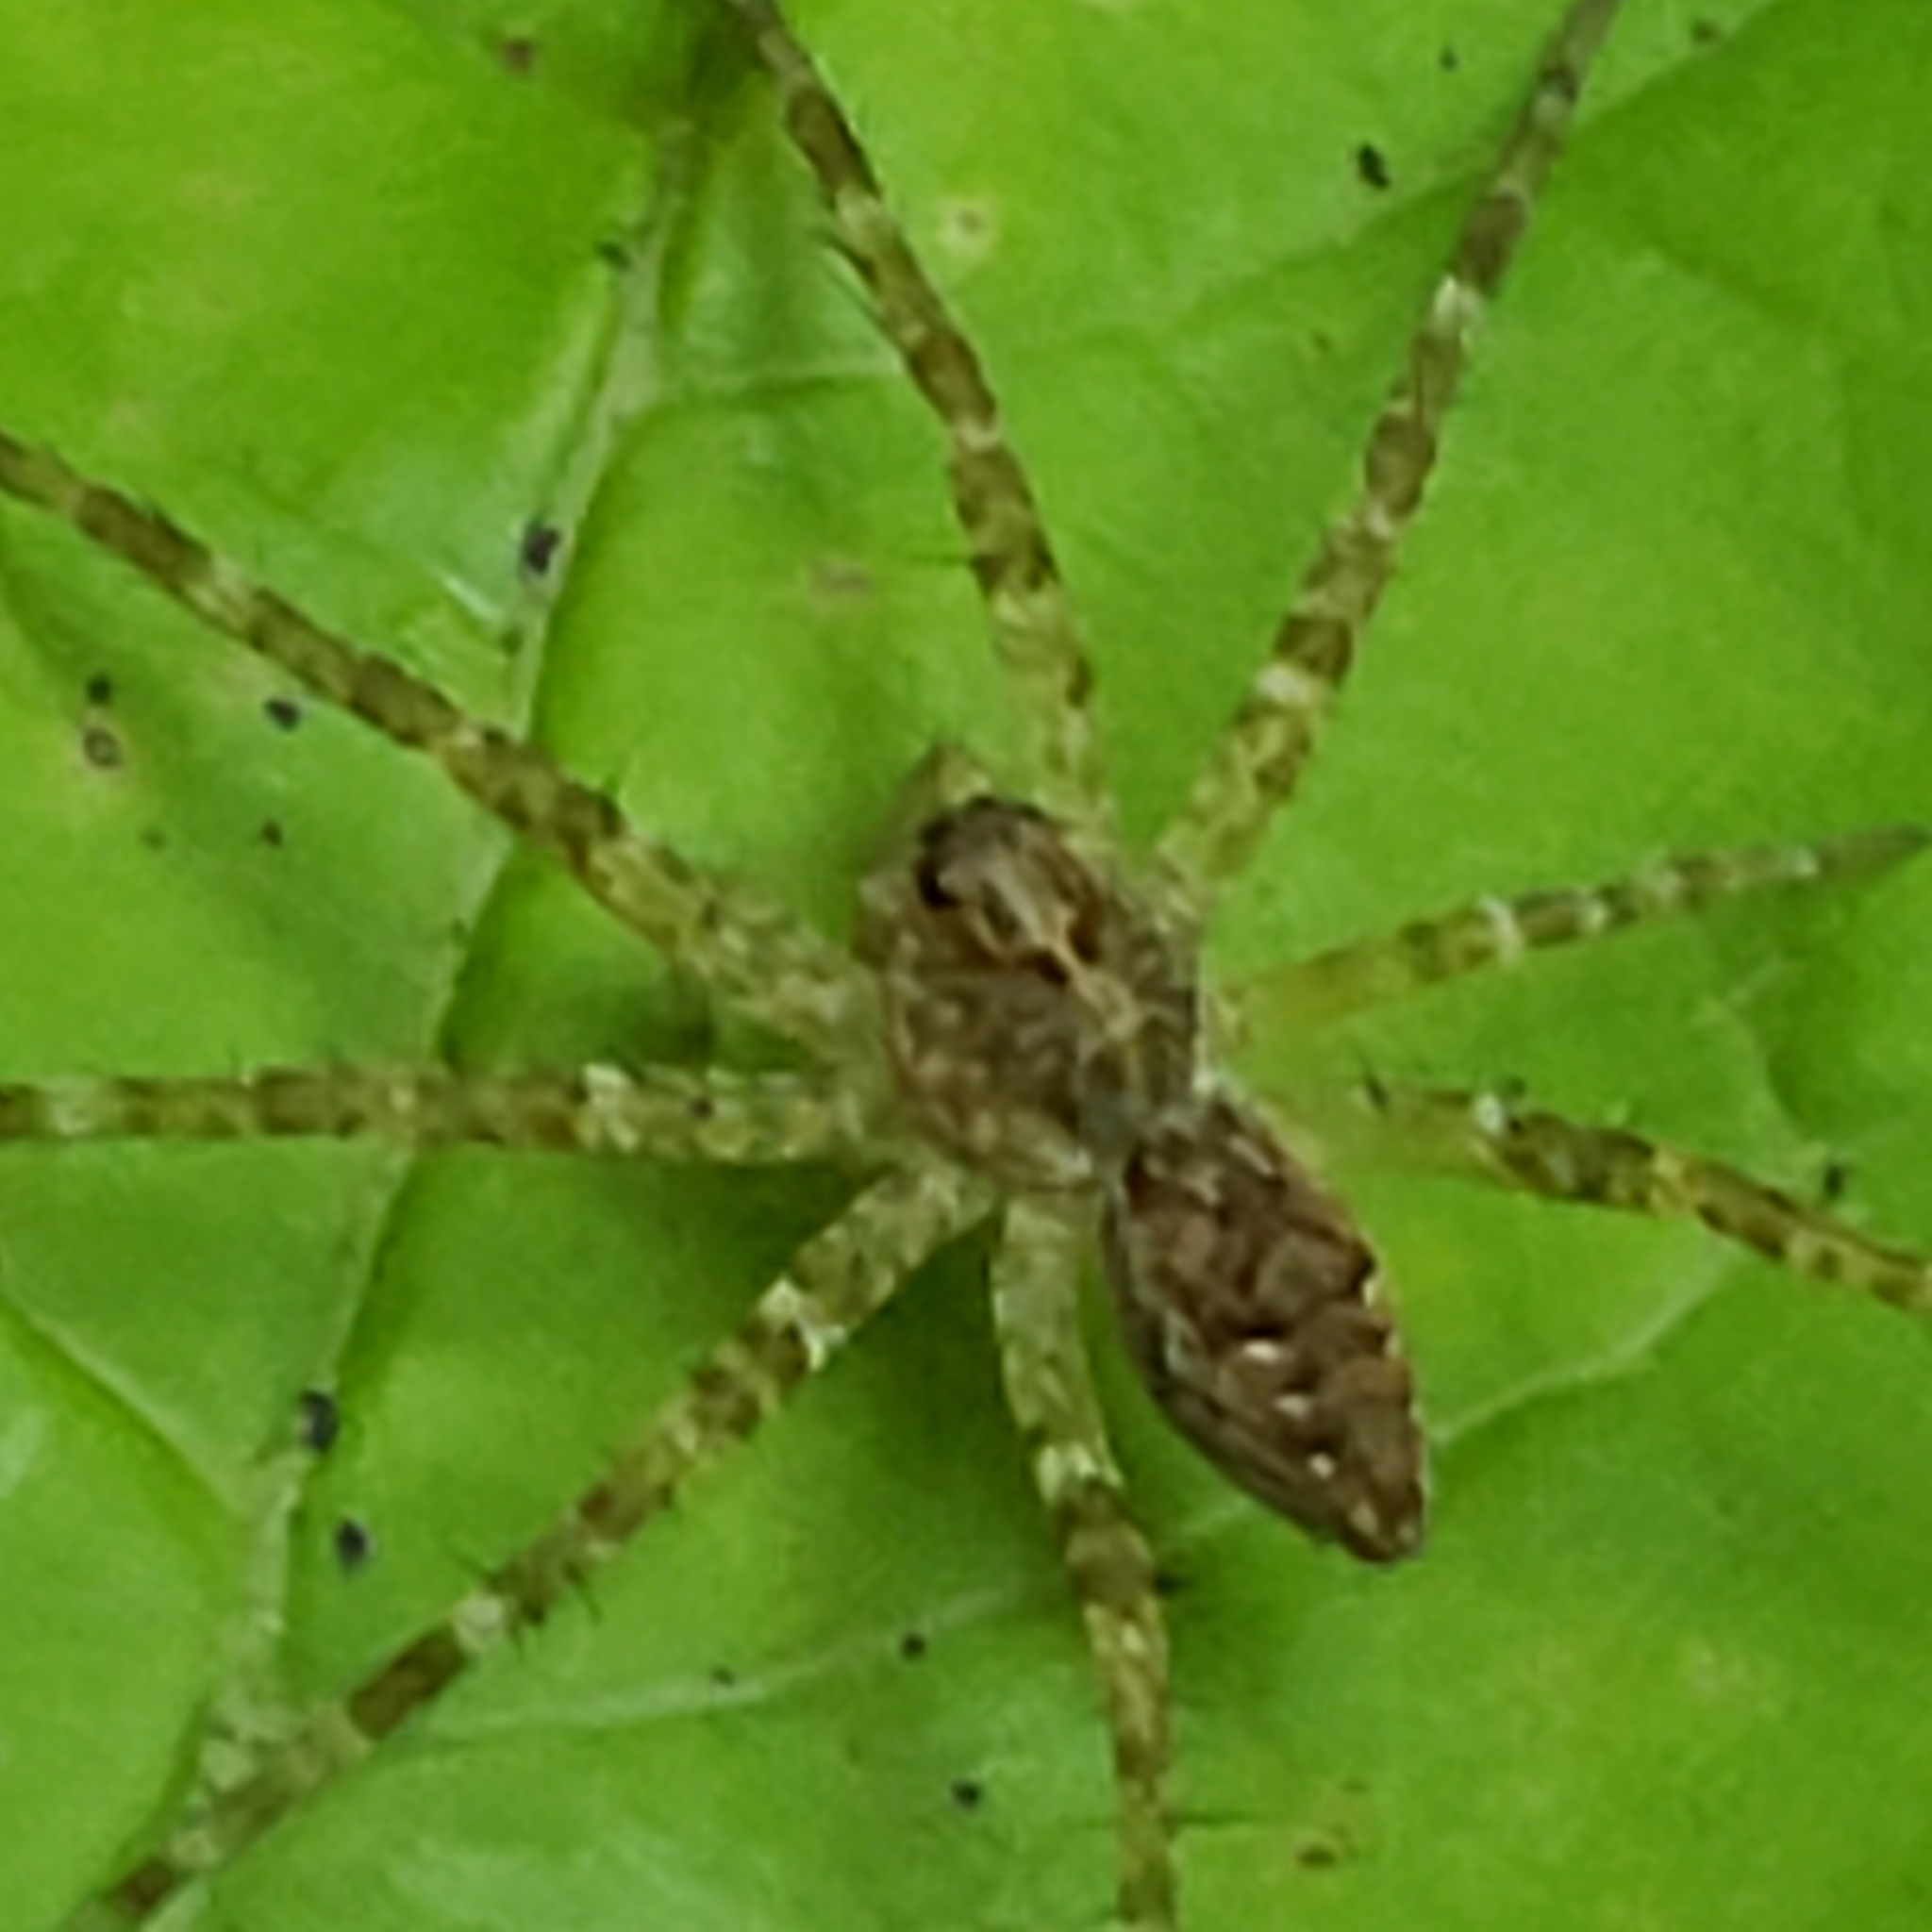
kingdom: Animalia
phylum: Arthropoda
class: Arachnida
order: Araneae
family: Pisauridae
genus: Dolomedes
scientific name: Dolomedes vittatus
